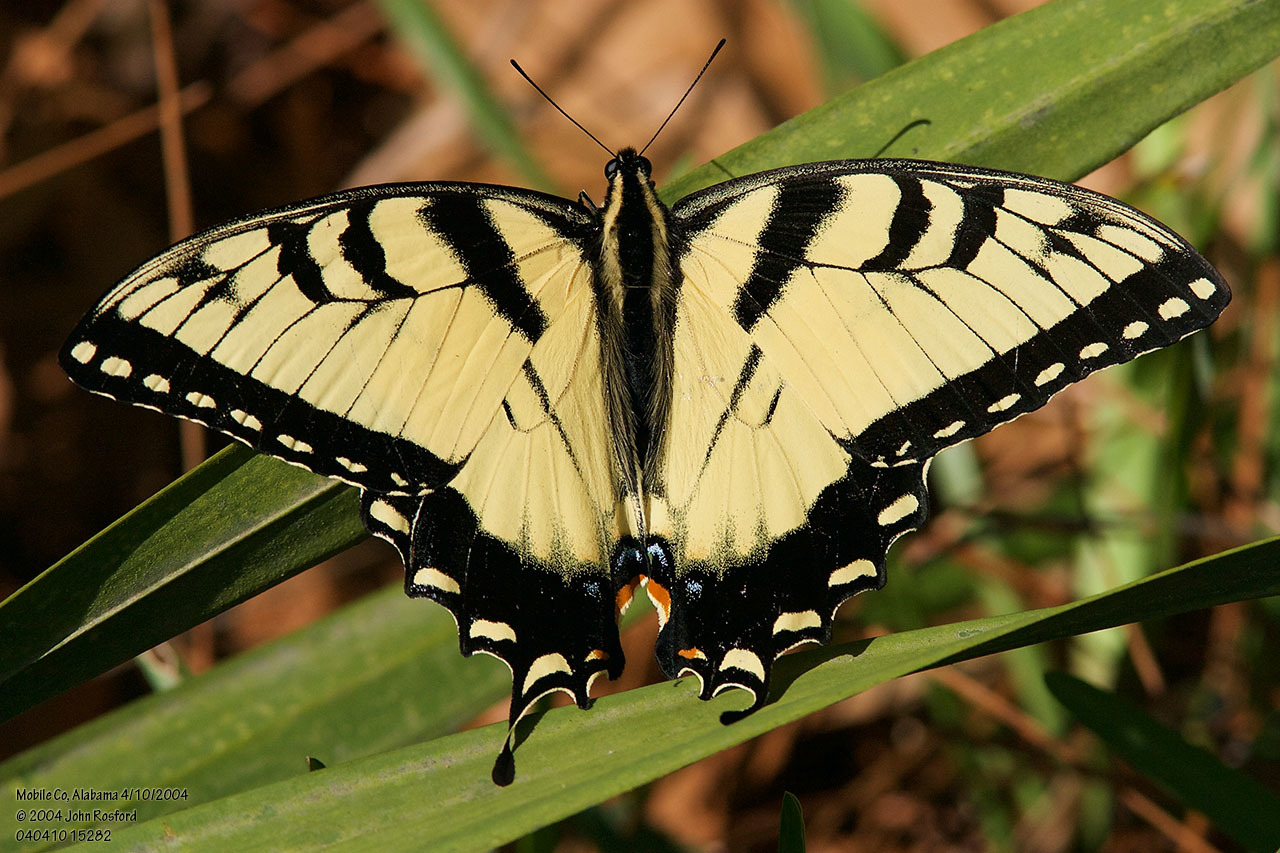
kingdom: Animalia
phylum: Arthropoda
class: Insecta
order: Lepidoptera
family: Papilionidae
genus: Papilio
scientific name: Papilio glaucus
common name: Tiger swallowtail
